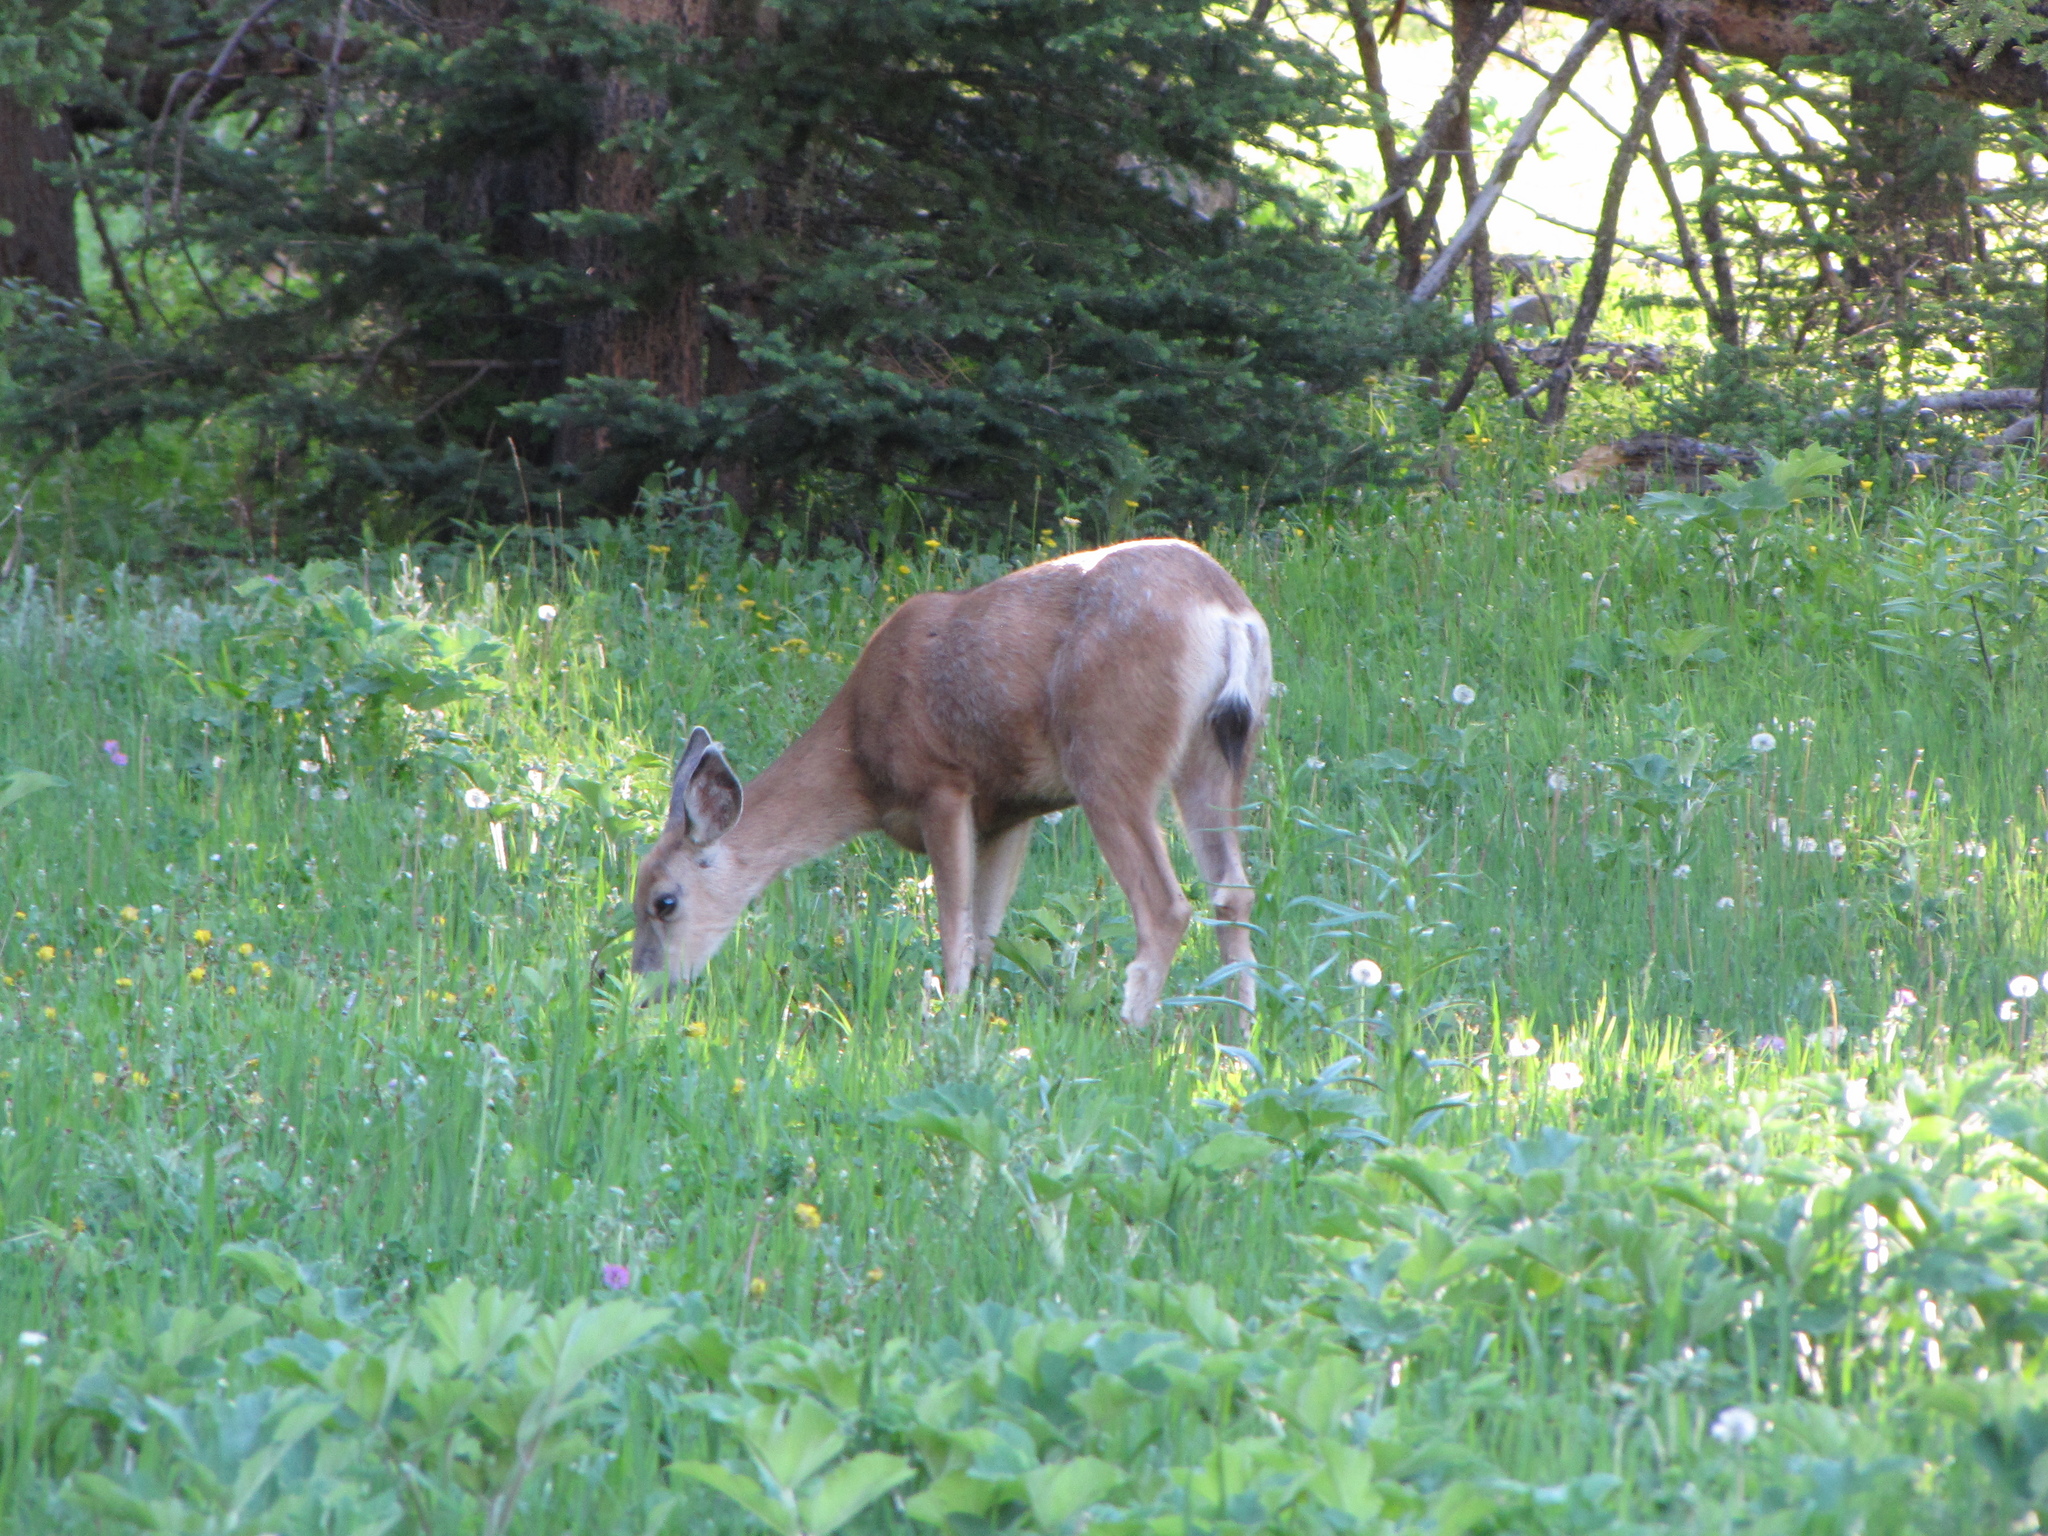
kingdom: Animalia
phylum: Chordata
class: Mammalia
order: Artiodactyla
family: Cervidae
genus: Odocoileus
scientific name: Odocoileus hemionus
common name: Mule deer
